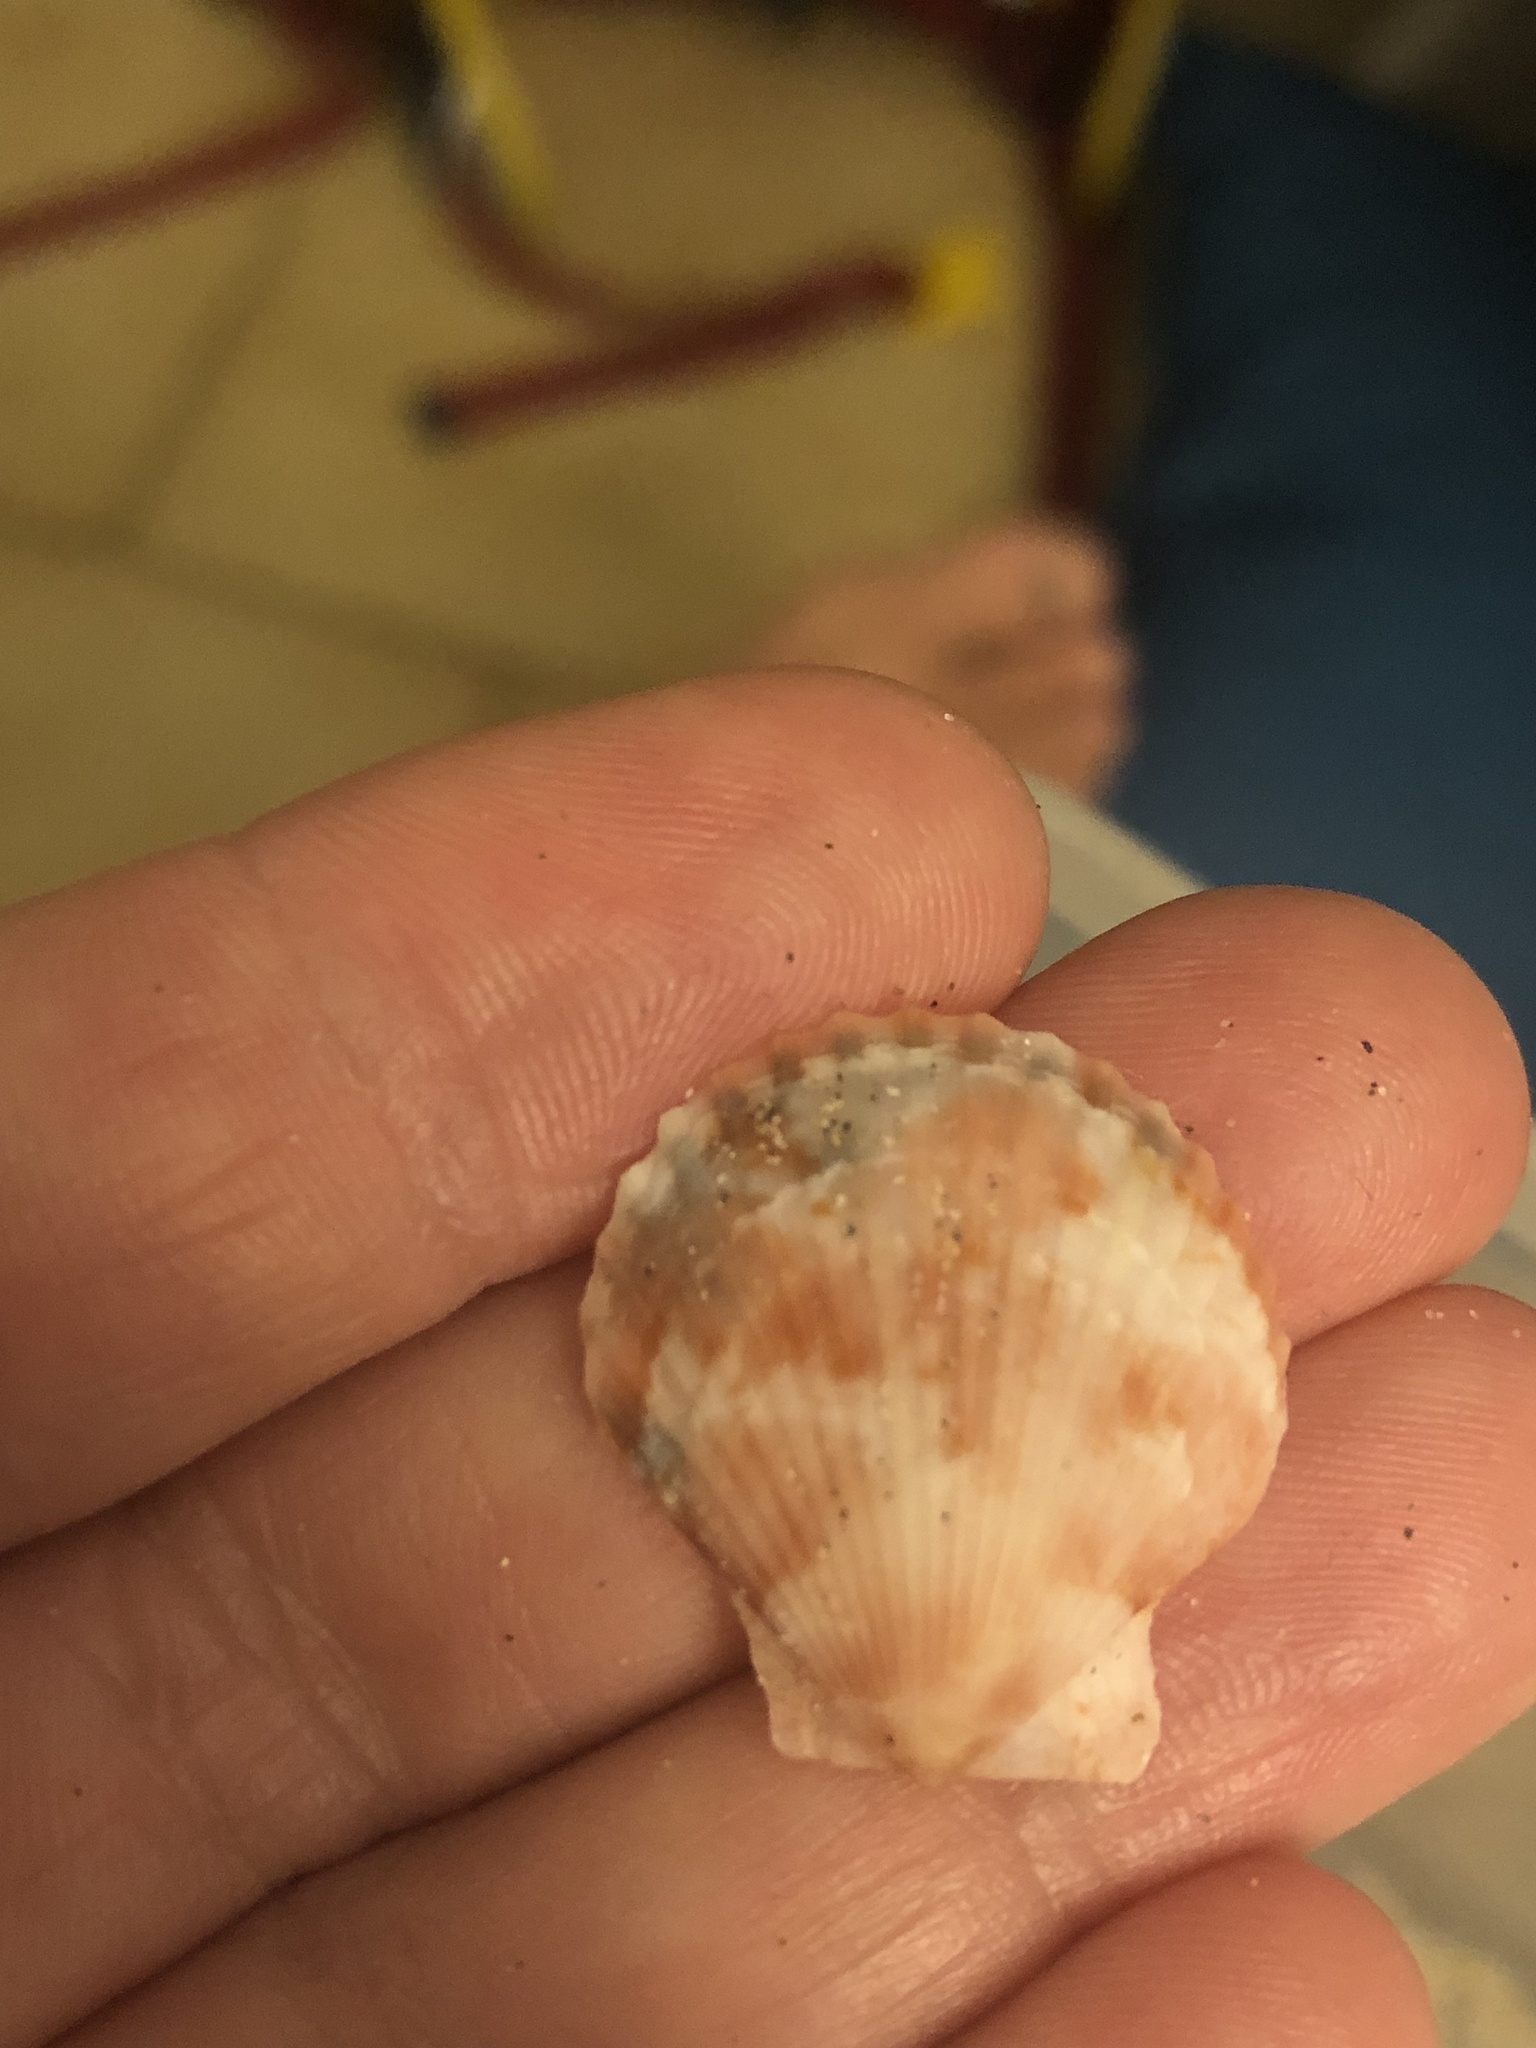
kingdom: Animalia
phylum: Mollusca
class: Bivalvia
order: Pectinida
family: Pectinidae
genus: Aequipecten
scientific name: Aequipecten opercularis
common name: Queen scallop
